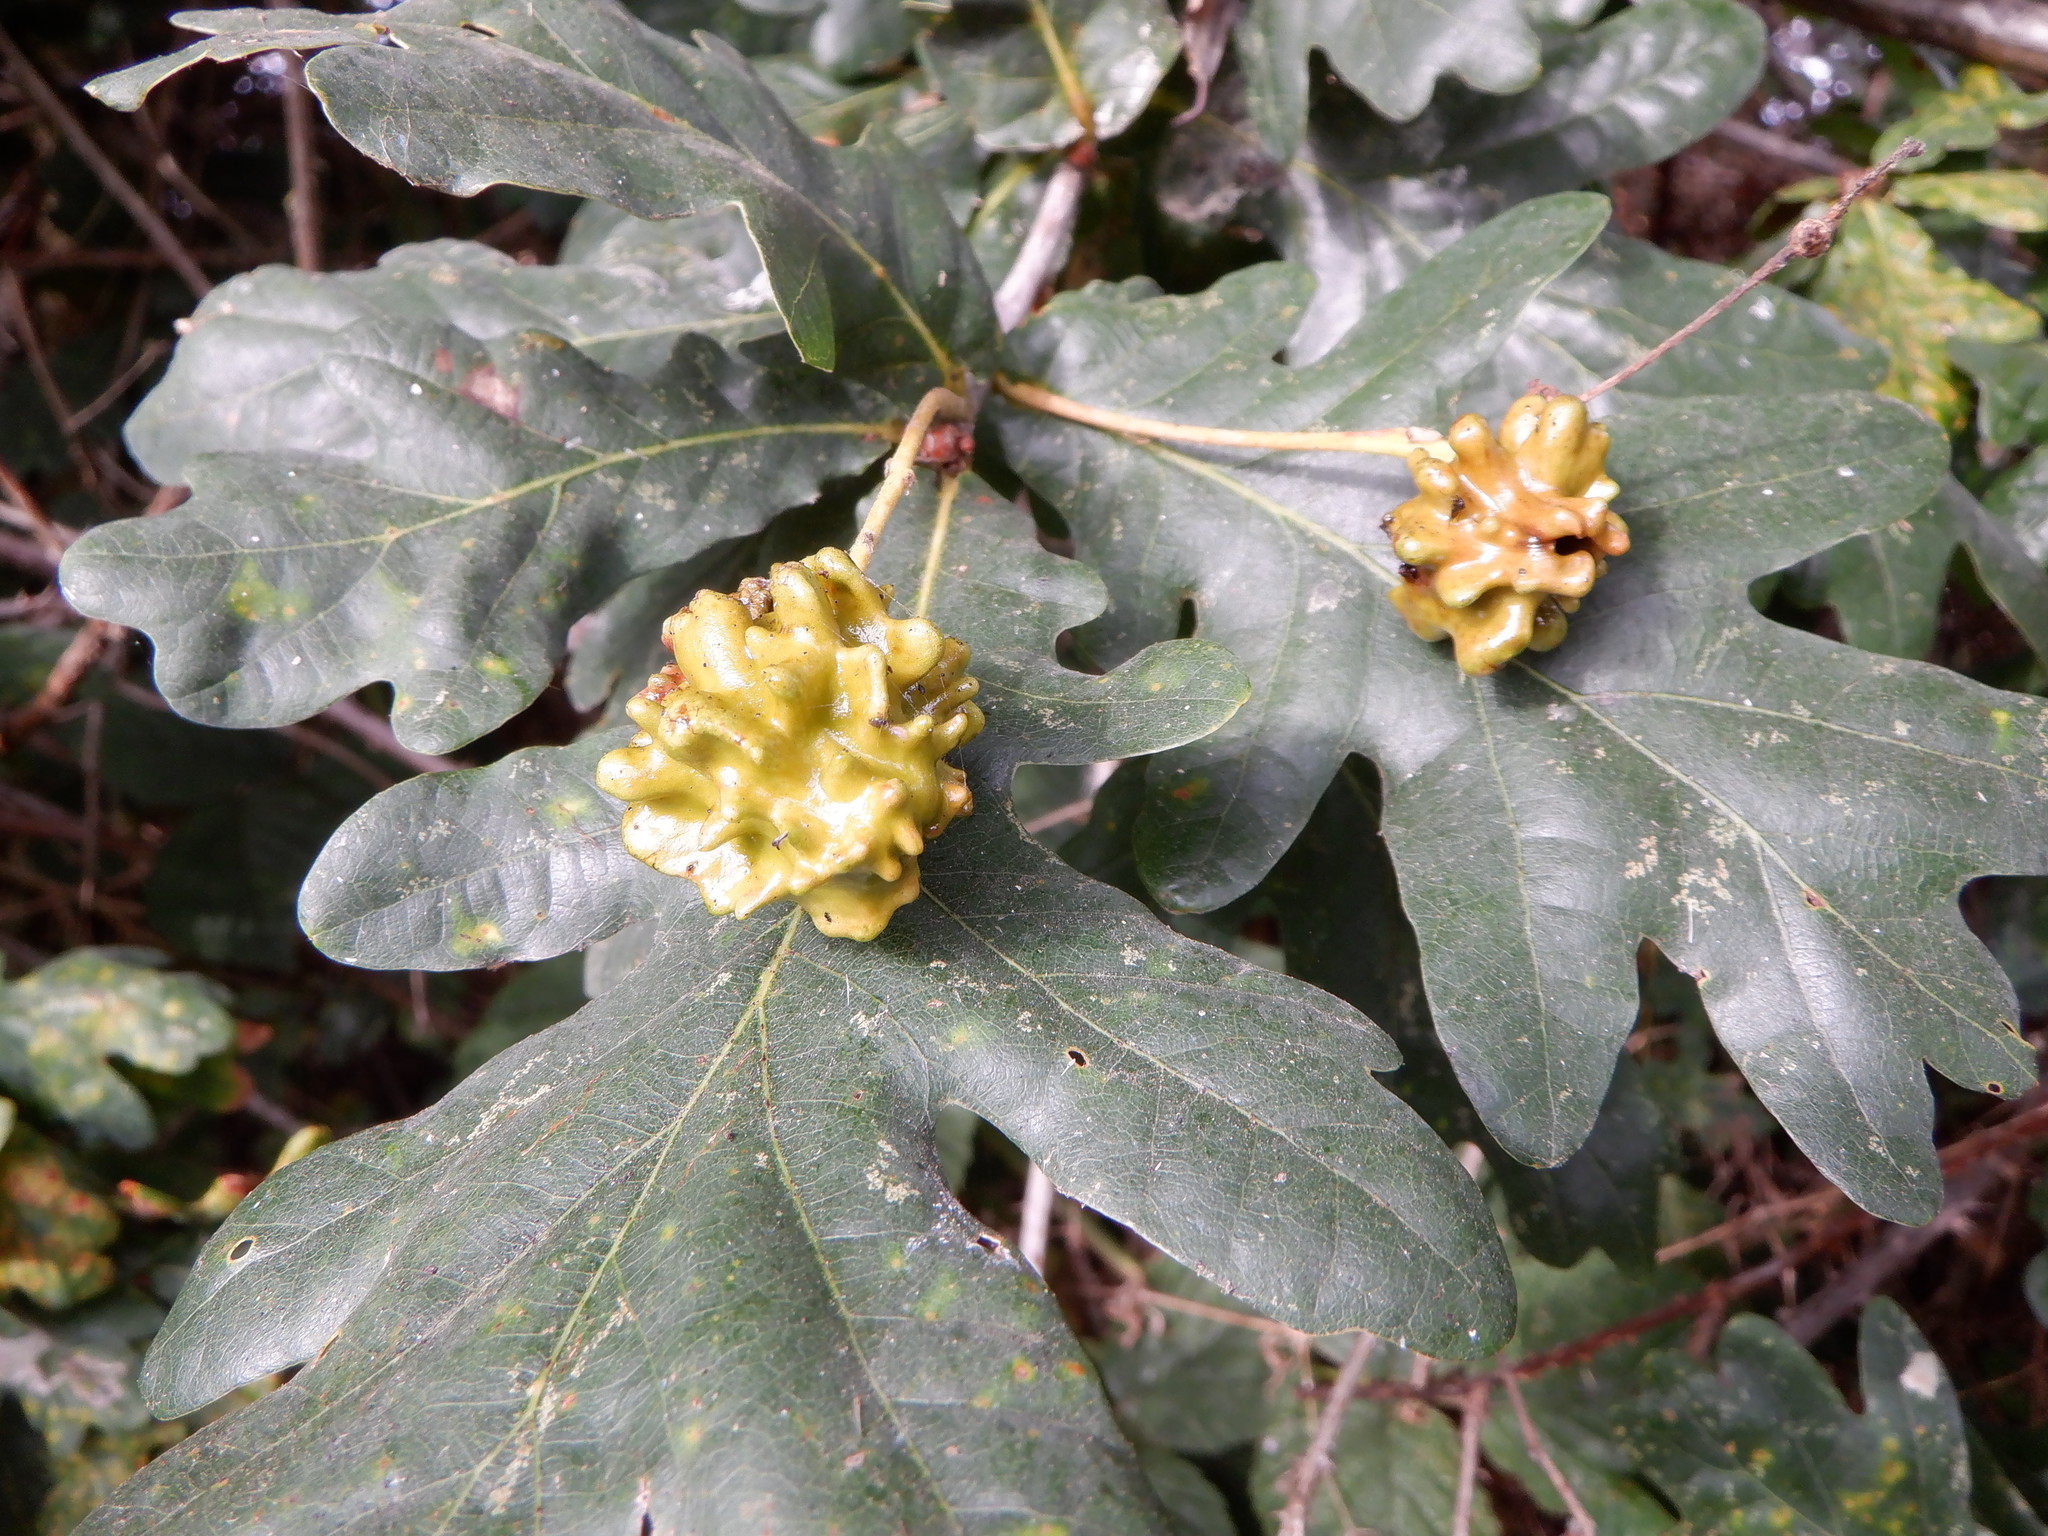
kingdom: Animalia
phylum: Arthropoda
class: Insecta
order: Hymenoptera
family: Cynipidae
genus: Andricus
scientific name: Andricus quercuscalicis
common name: Knopper gall
